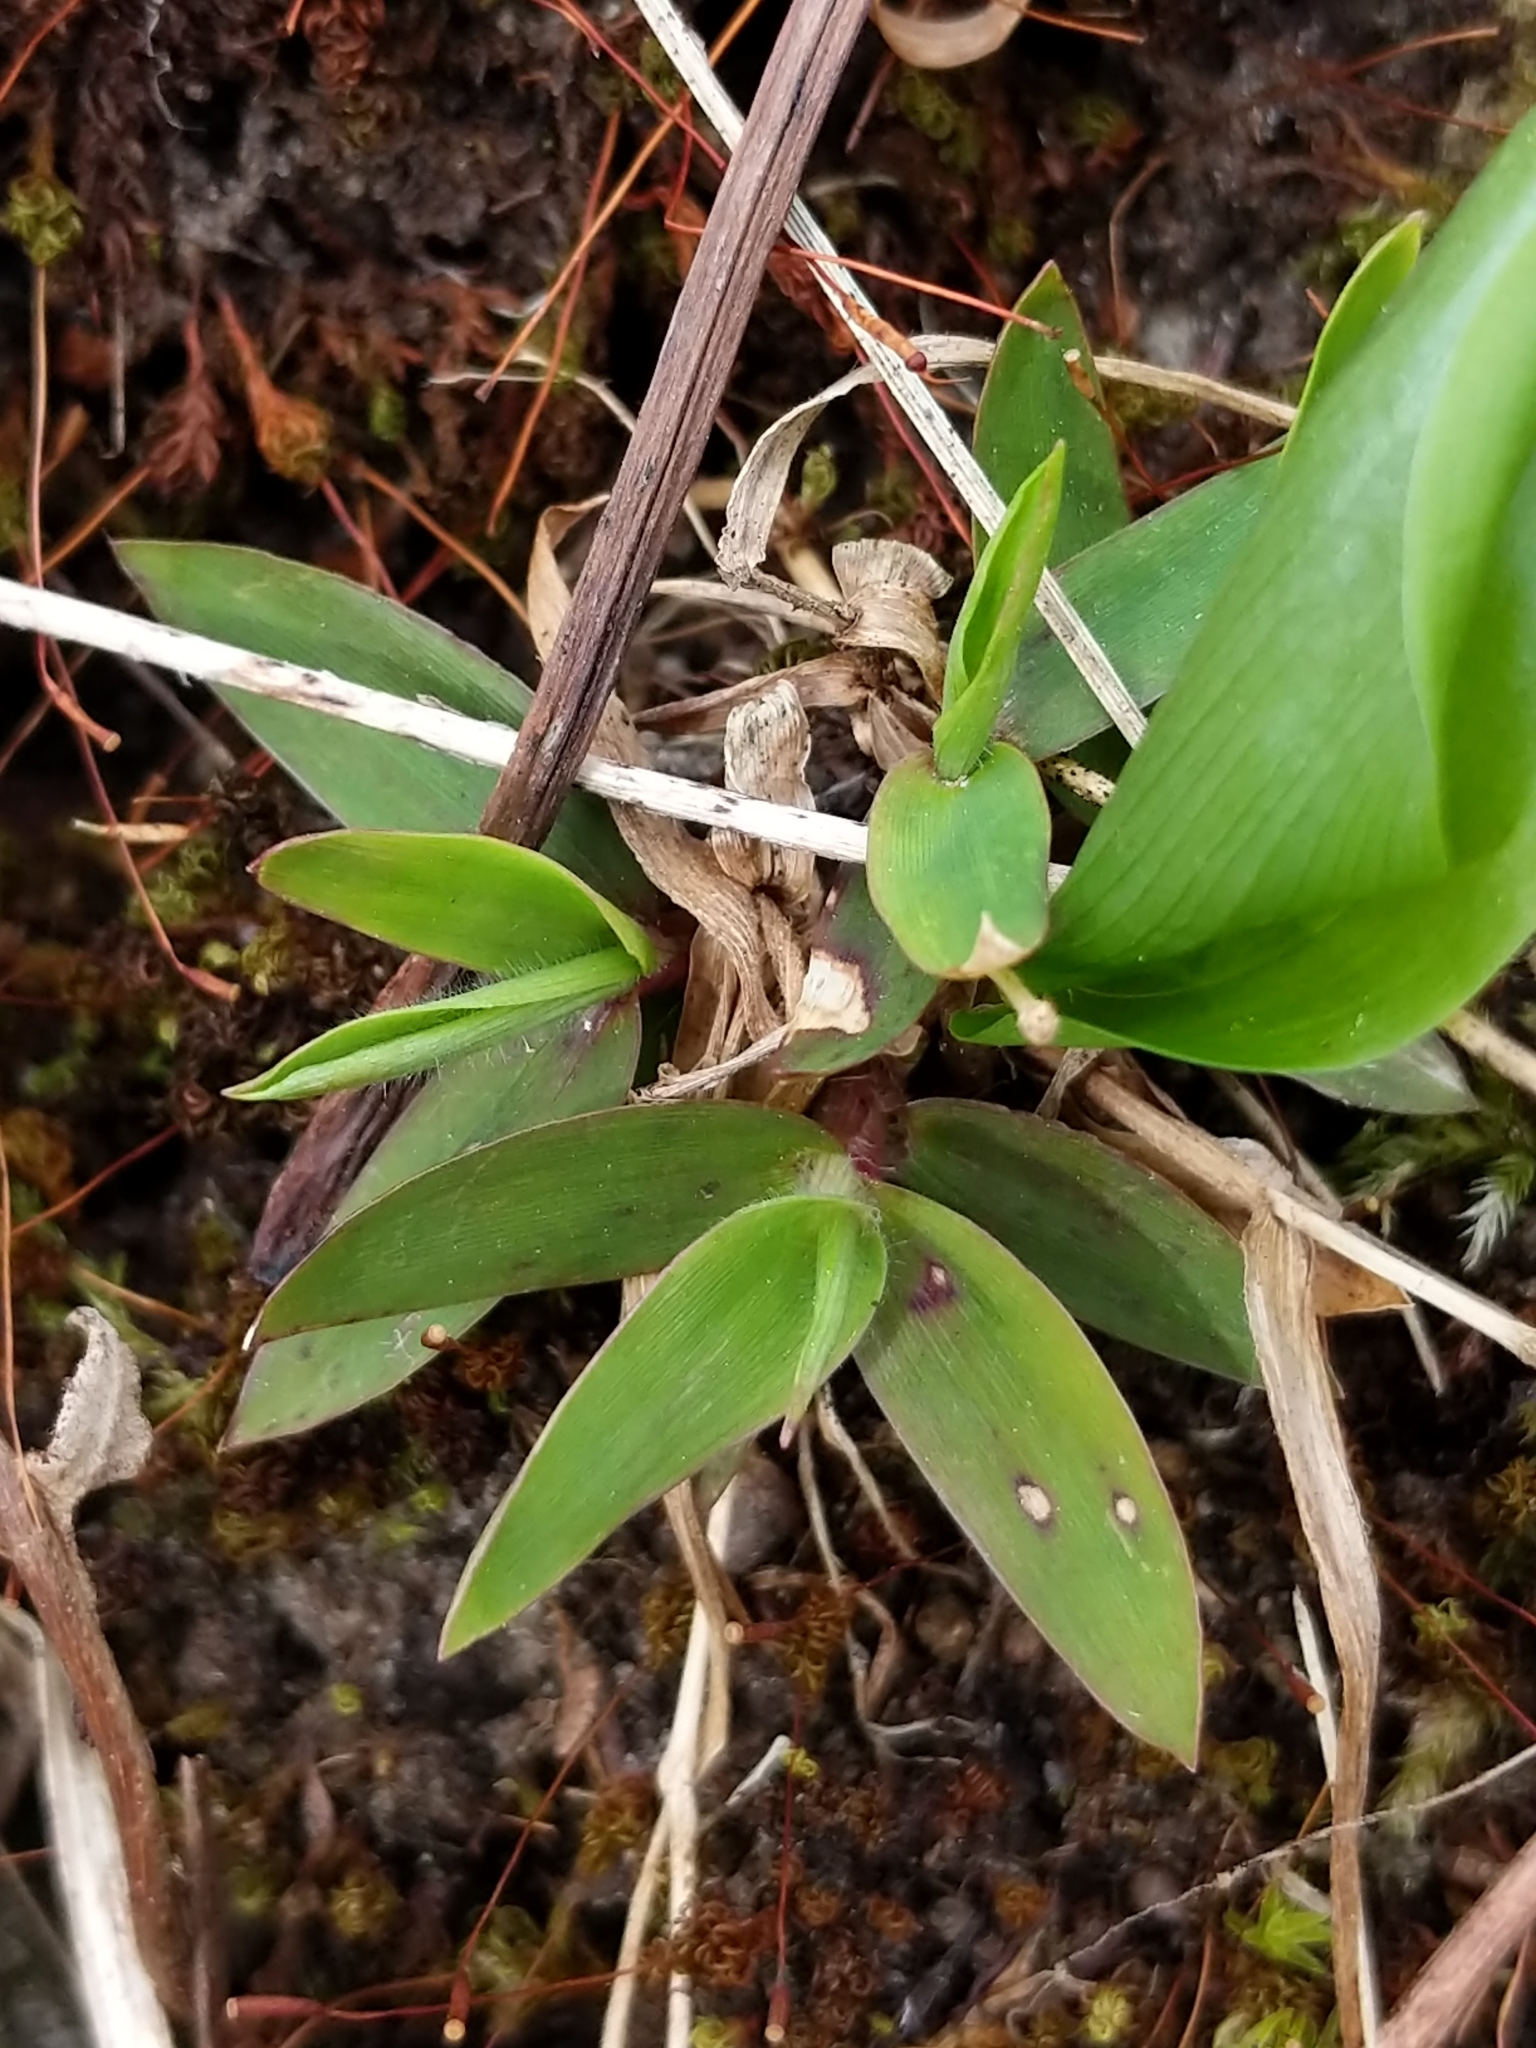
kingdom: Plantae
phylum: Tracheophyta
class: Liliopsida
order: Poales
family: Poaceae
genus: Dichanthelium
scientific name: Dichanthelium
